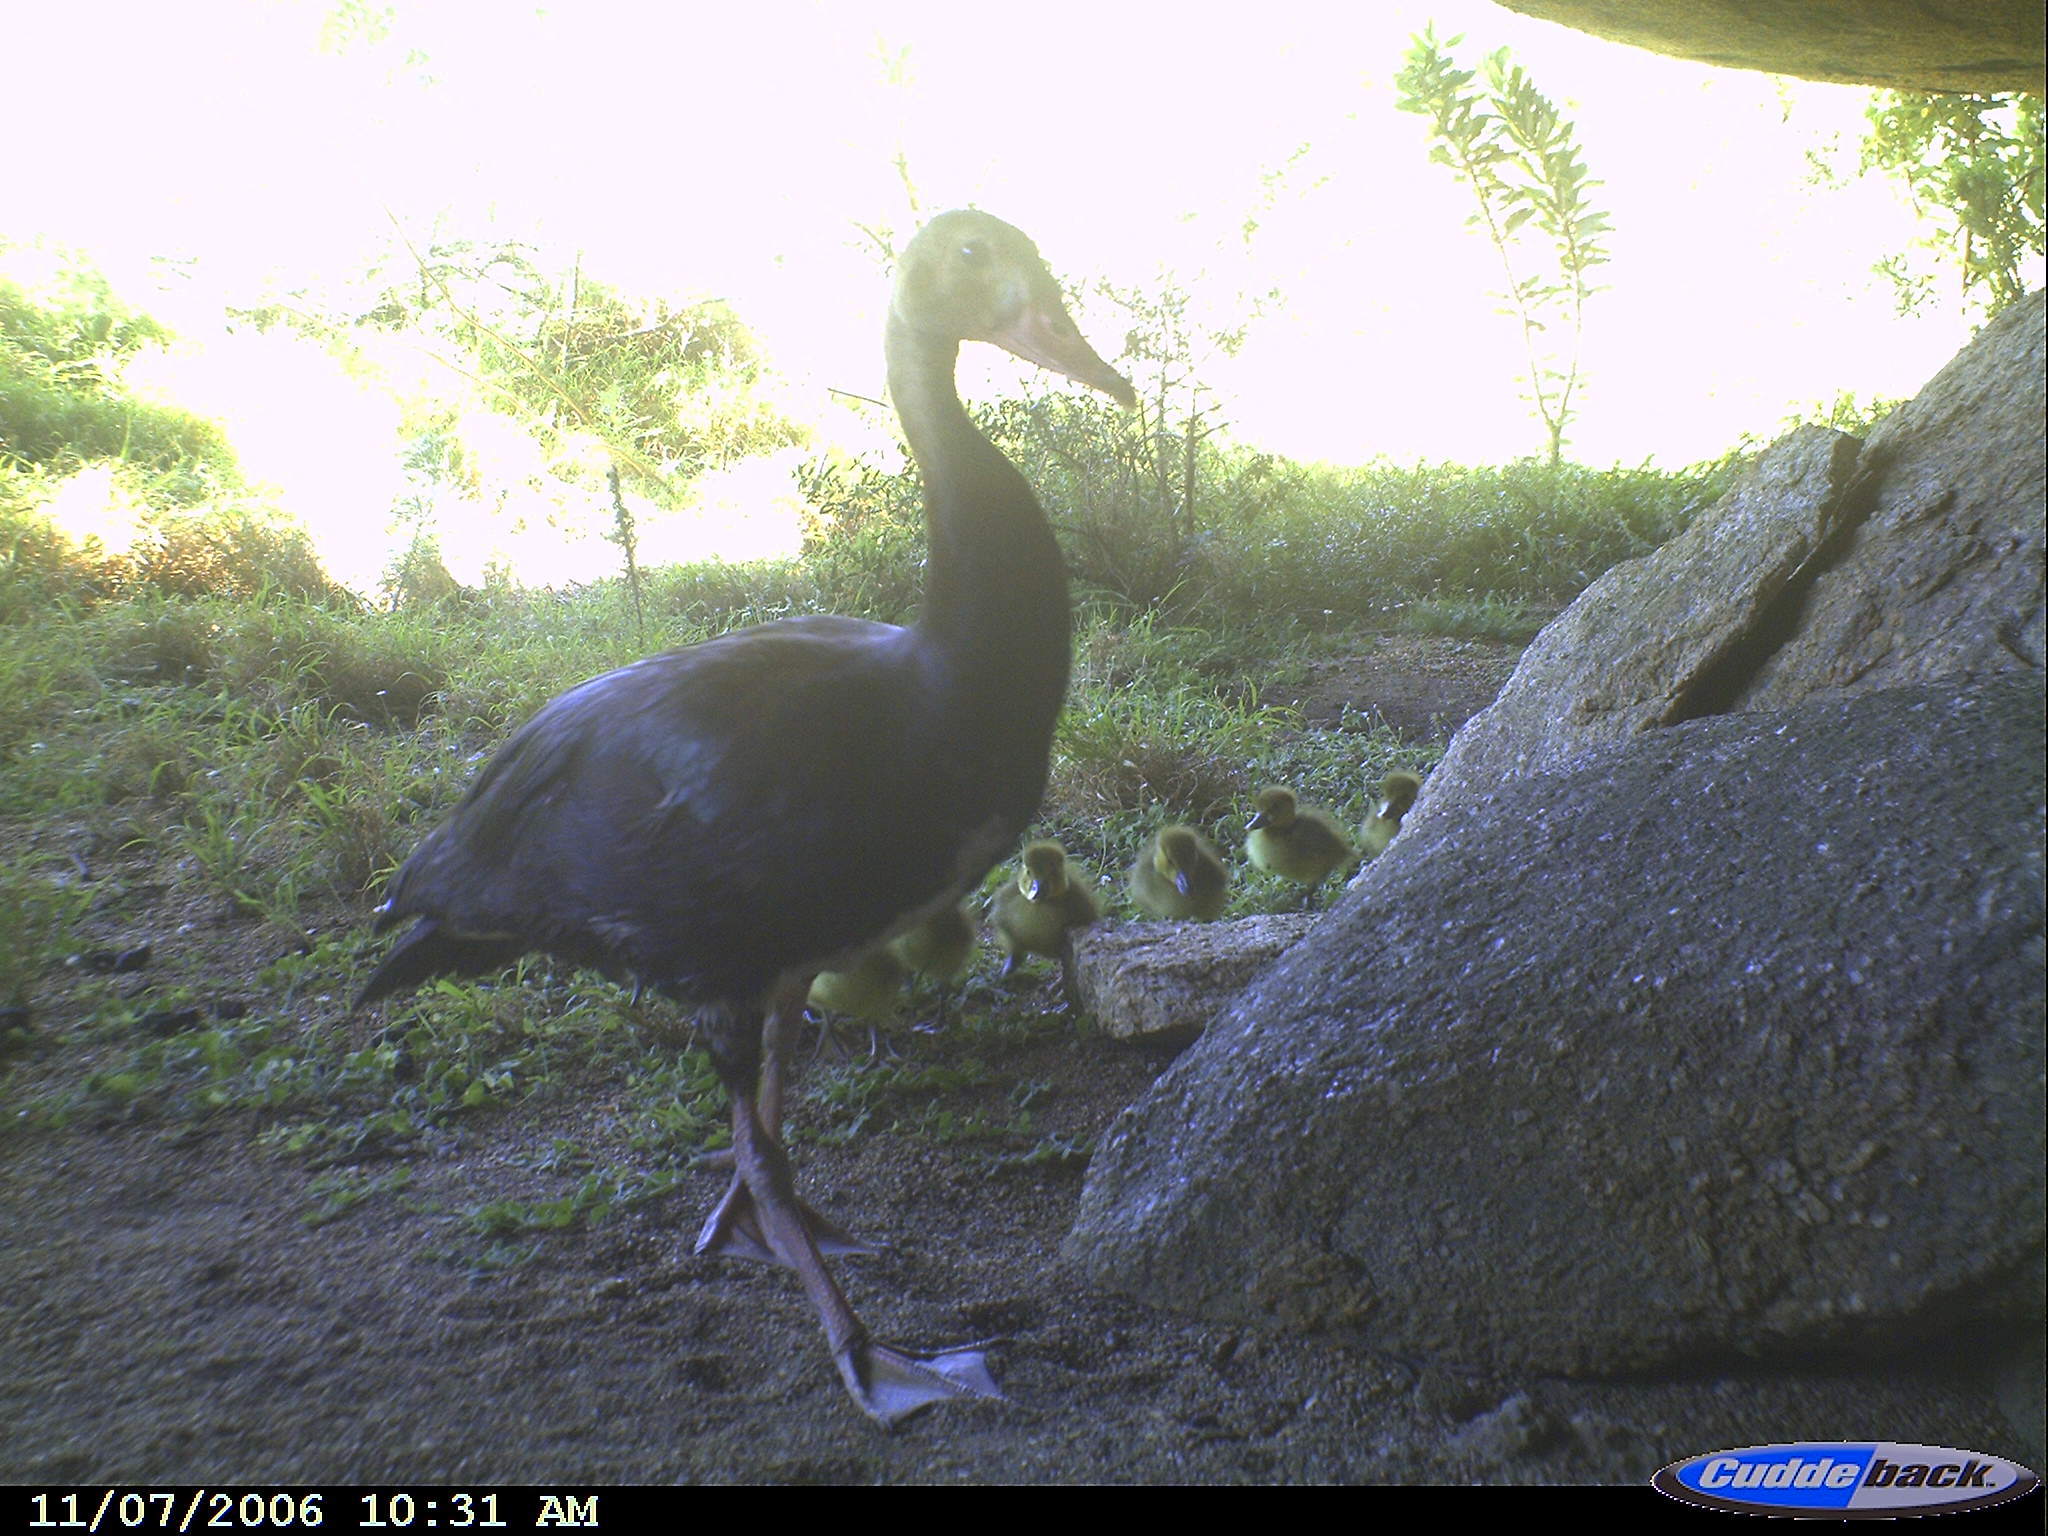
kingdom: Animalia
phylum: Chordata
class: Aves
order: Anseriformes
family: Anatidae
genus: Plectropterus
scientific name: Plectropterus gambensis
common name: Spur-winged goose
